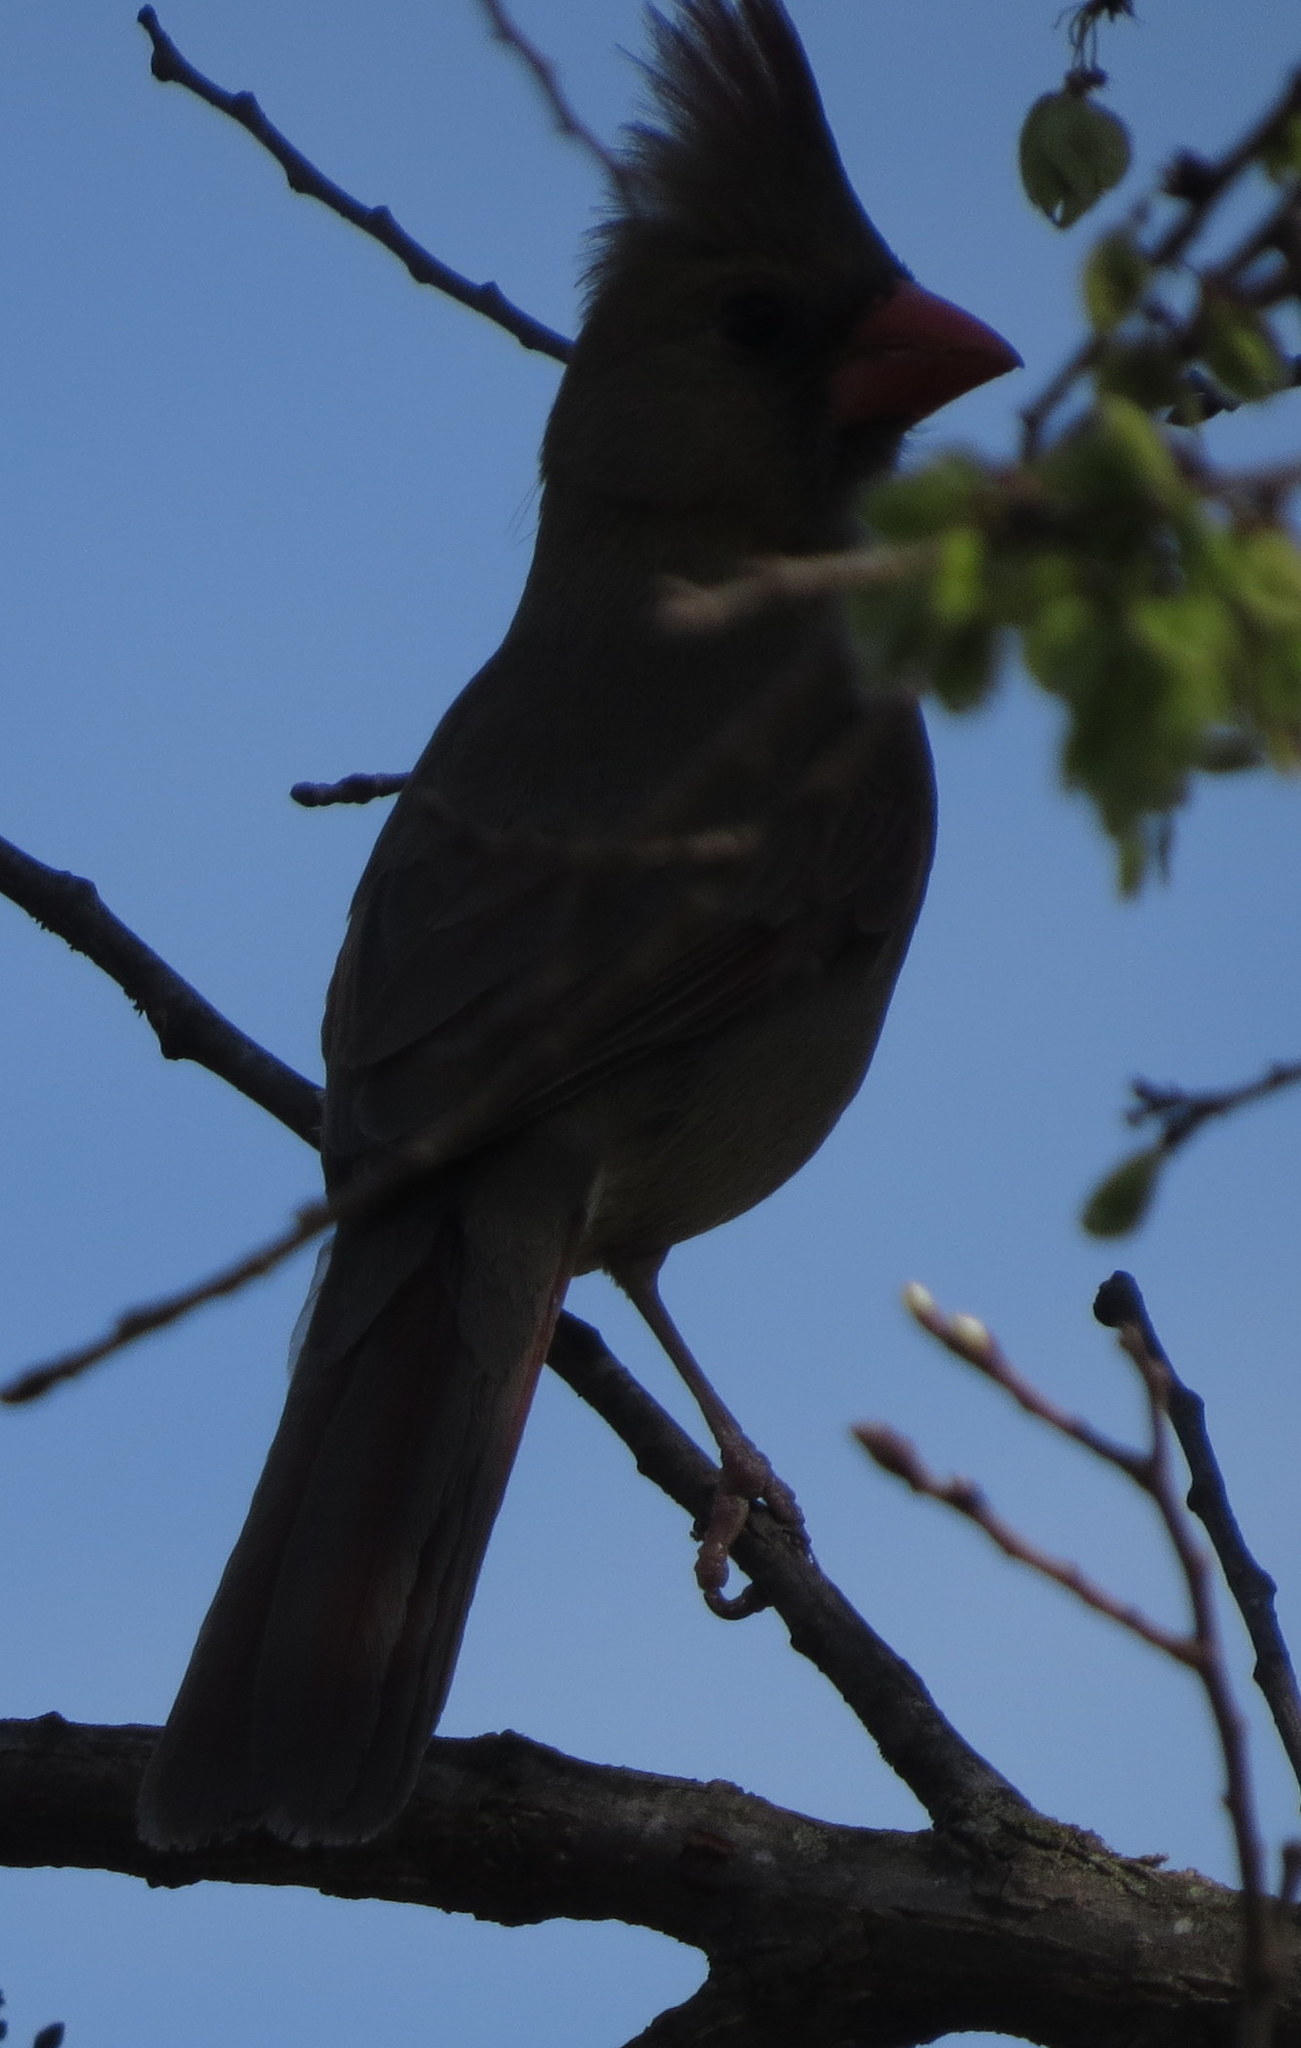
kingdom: Animalia
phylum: Chordata
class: Aves
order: Passeriformes
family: Cardinalidae
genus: Cardinalis
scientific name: Cardinalis cardinalis
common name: Northern cardinal
